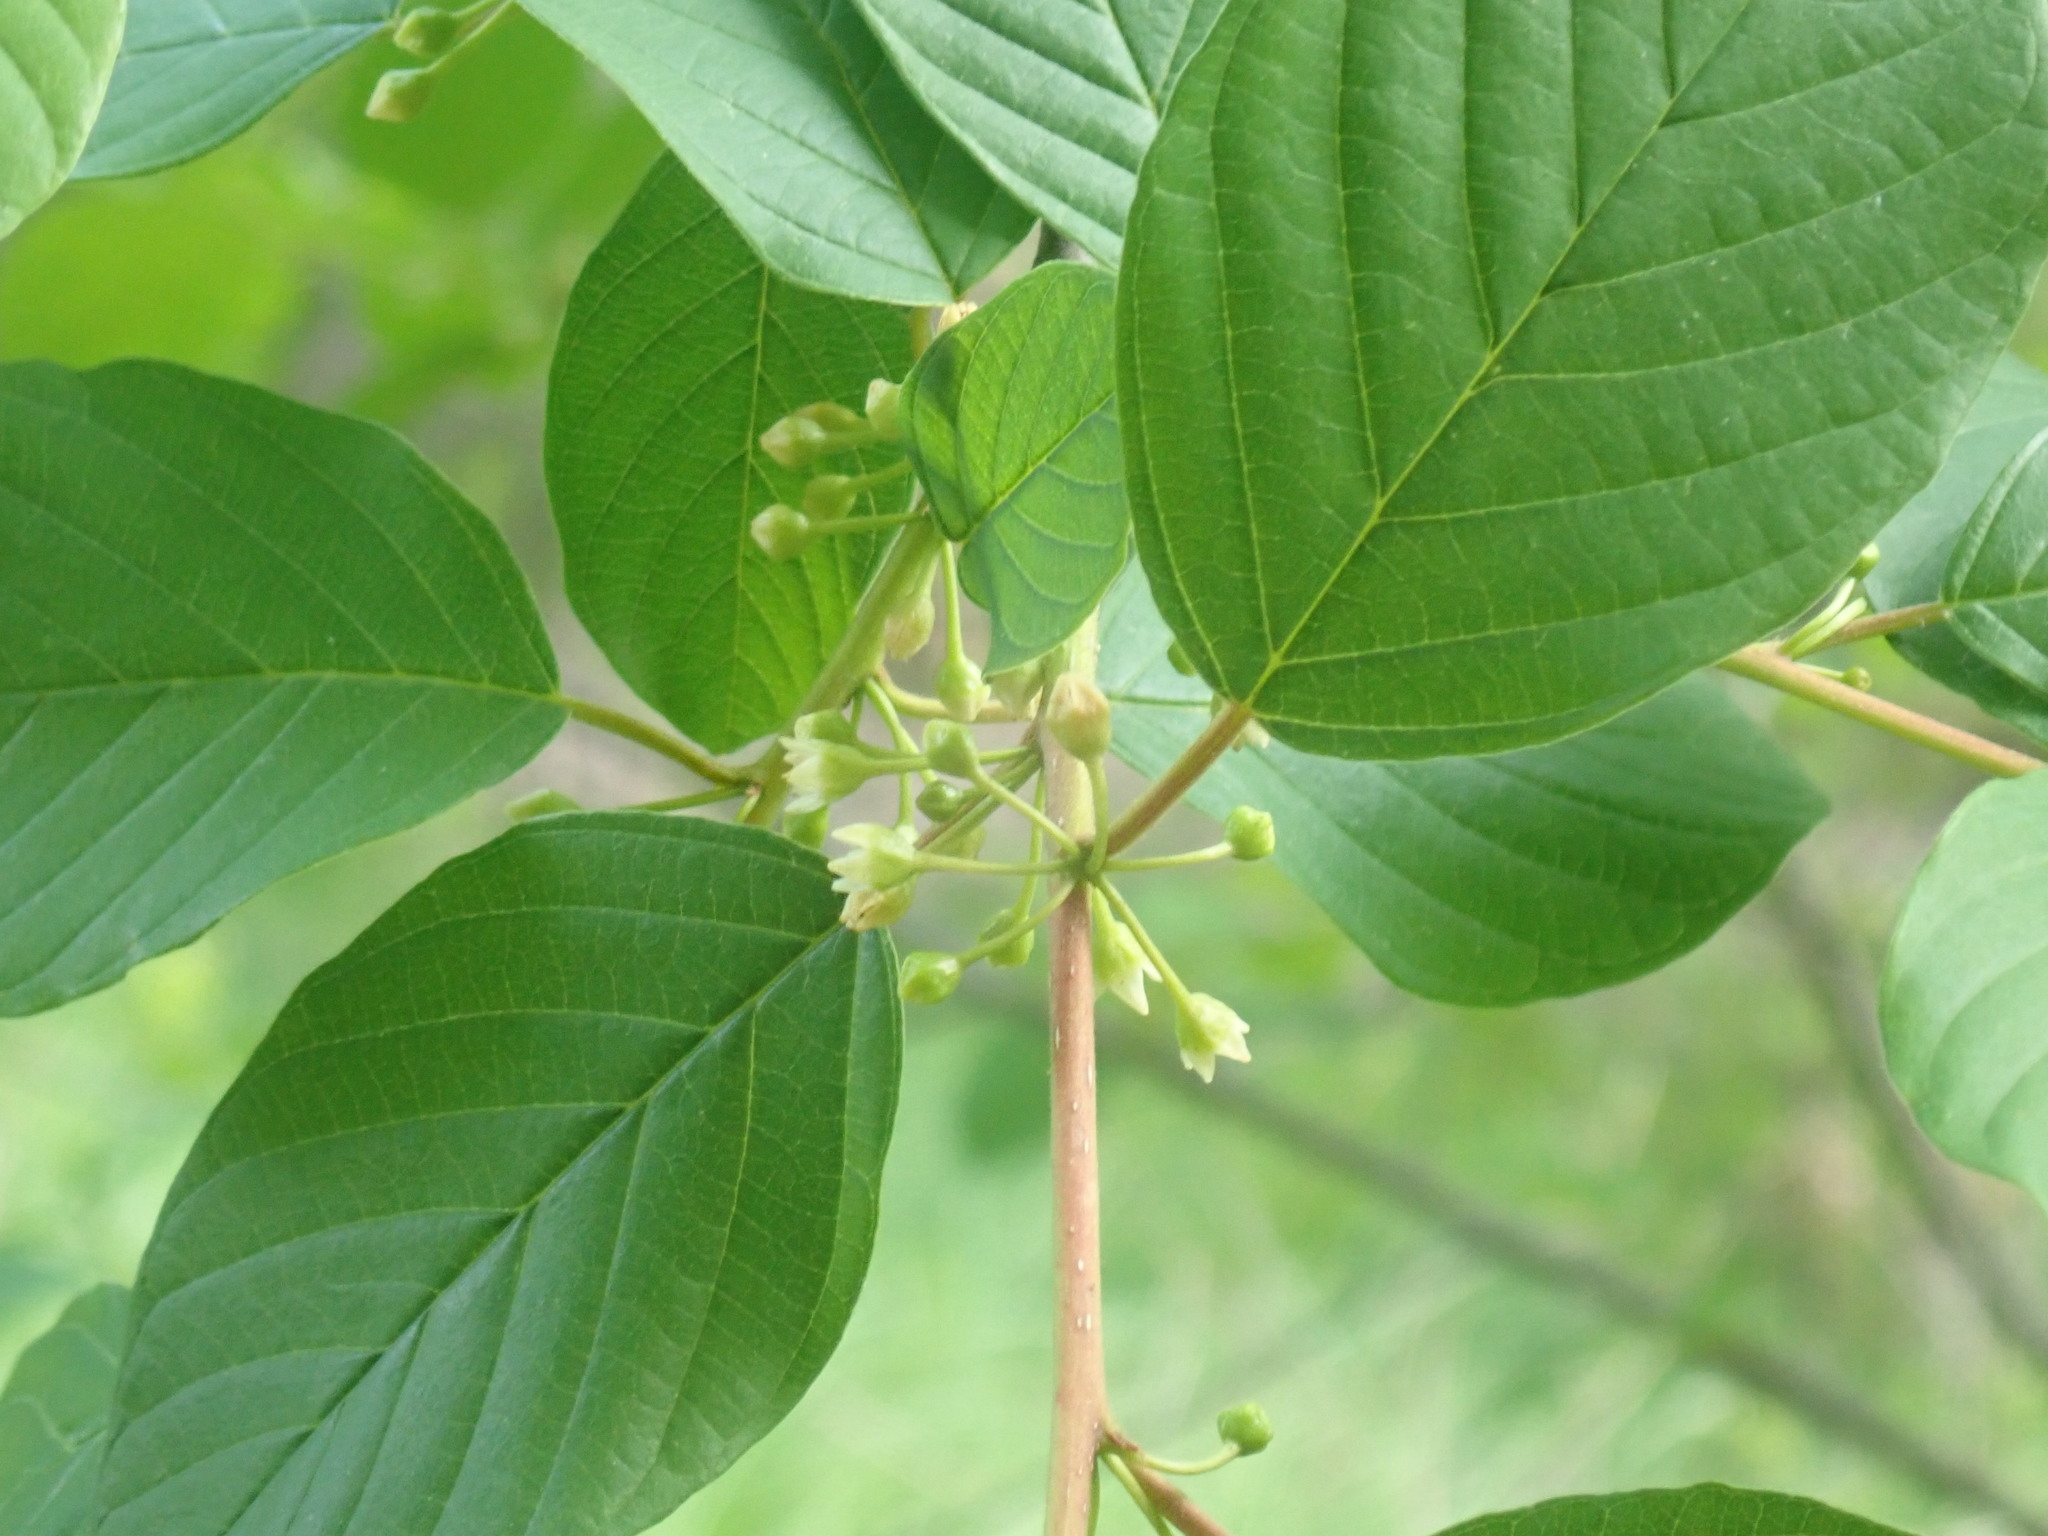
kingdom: Plantae
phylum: Tracheophyta
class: Magnoliopsida
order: Rosales
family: Rhamnaceae
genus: Frangula
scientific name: Frangula alnus
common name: Alder buckthorn
